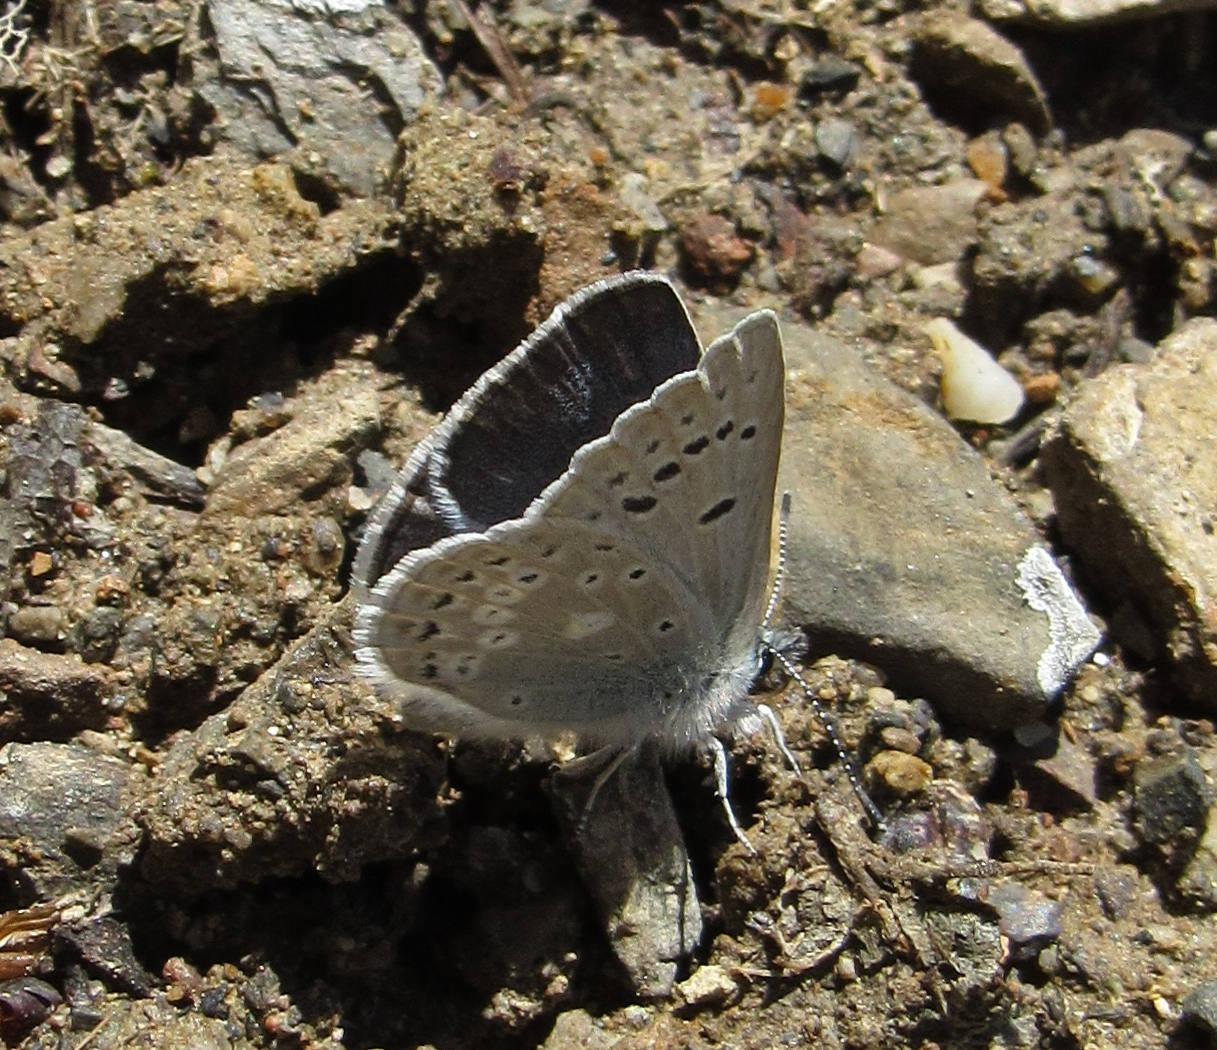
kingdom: Animalia
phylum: Arthropoda
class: Insecta
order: Lepidoptera
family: Lycaenidae
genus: Icaricia
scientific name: Icaricia icarioides
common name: Boisduval's blue
